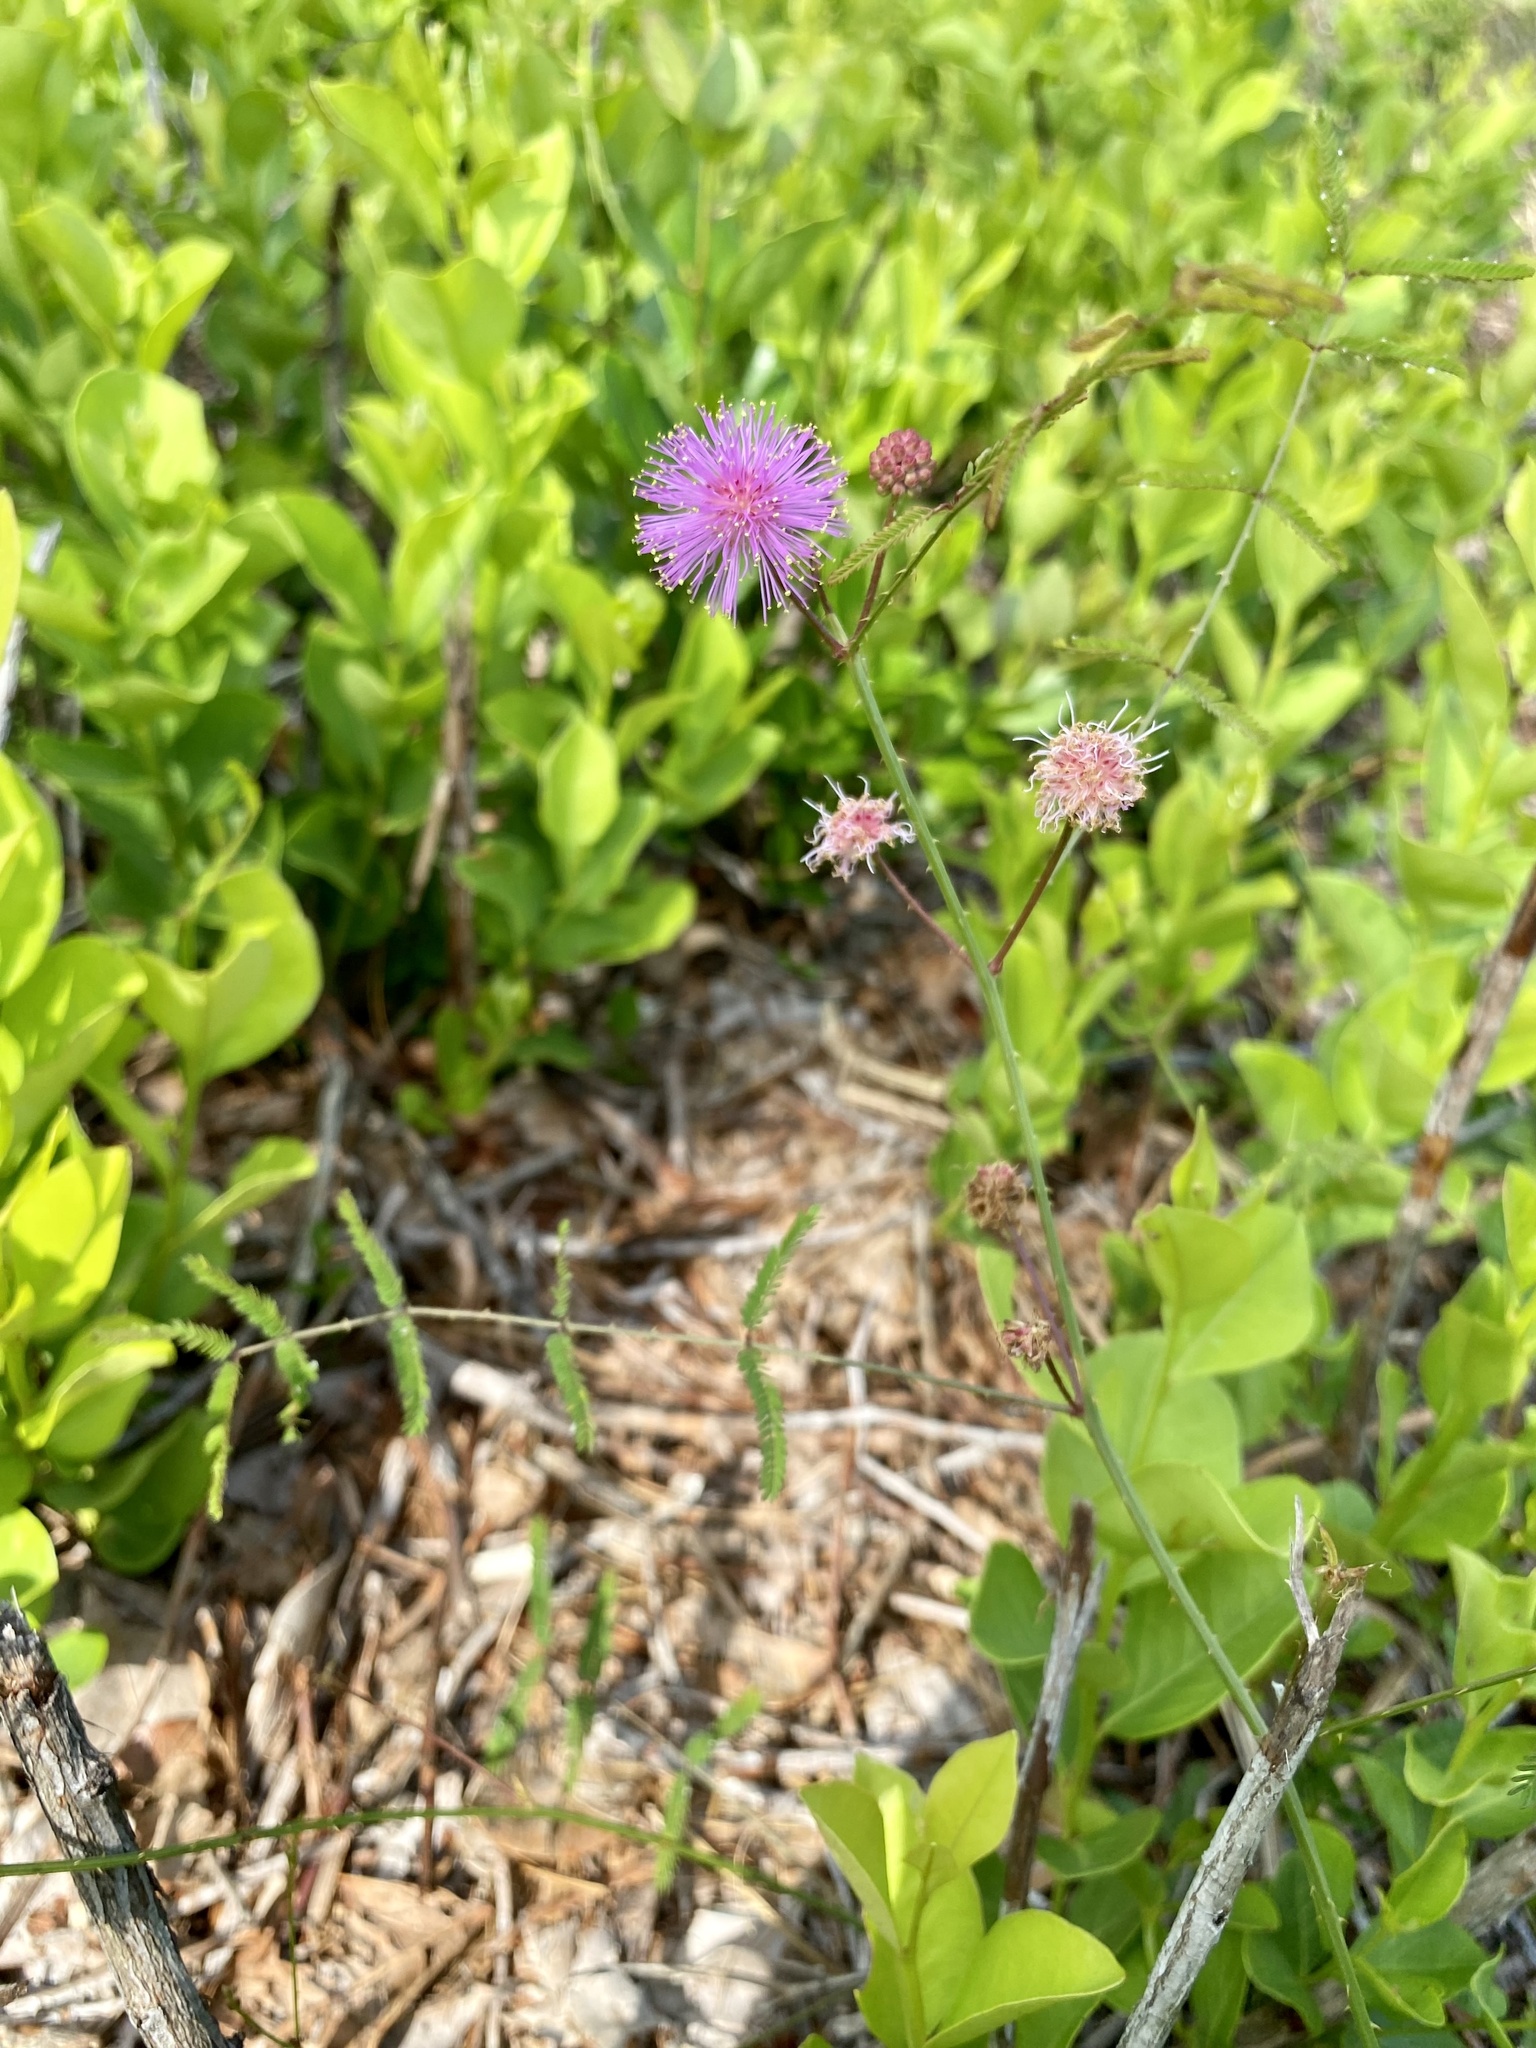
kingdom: Plantae
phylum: Tracheophyta
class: Magnoliopsida
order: Fabales
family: Fabaceae
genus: Mimosa
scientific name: Mimosa floridana
